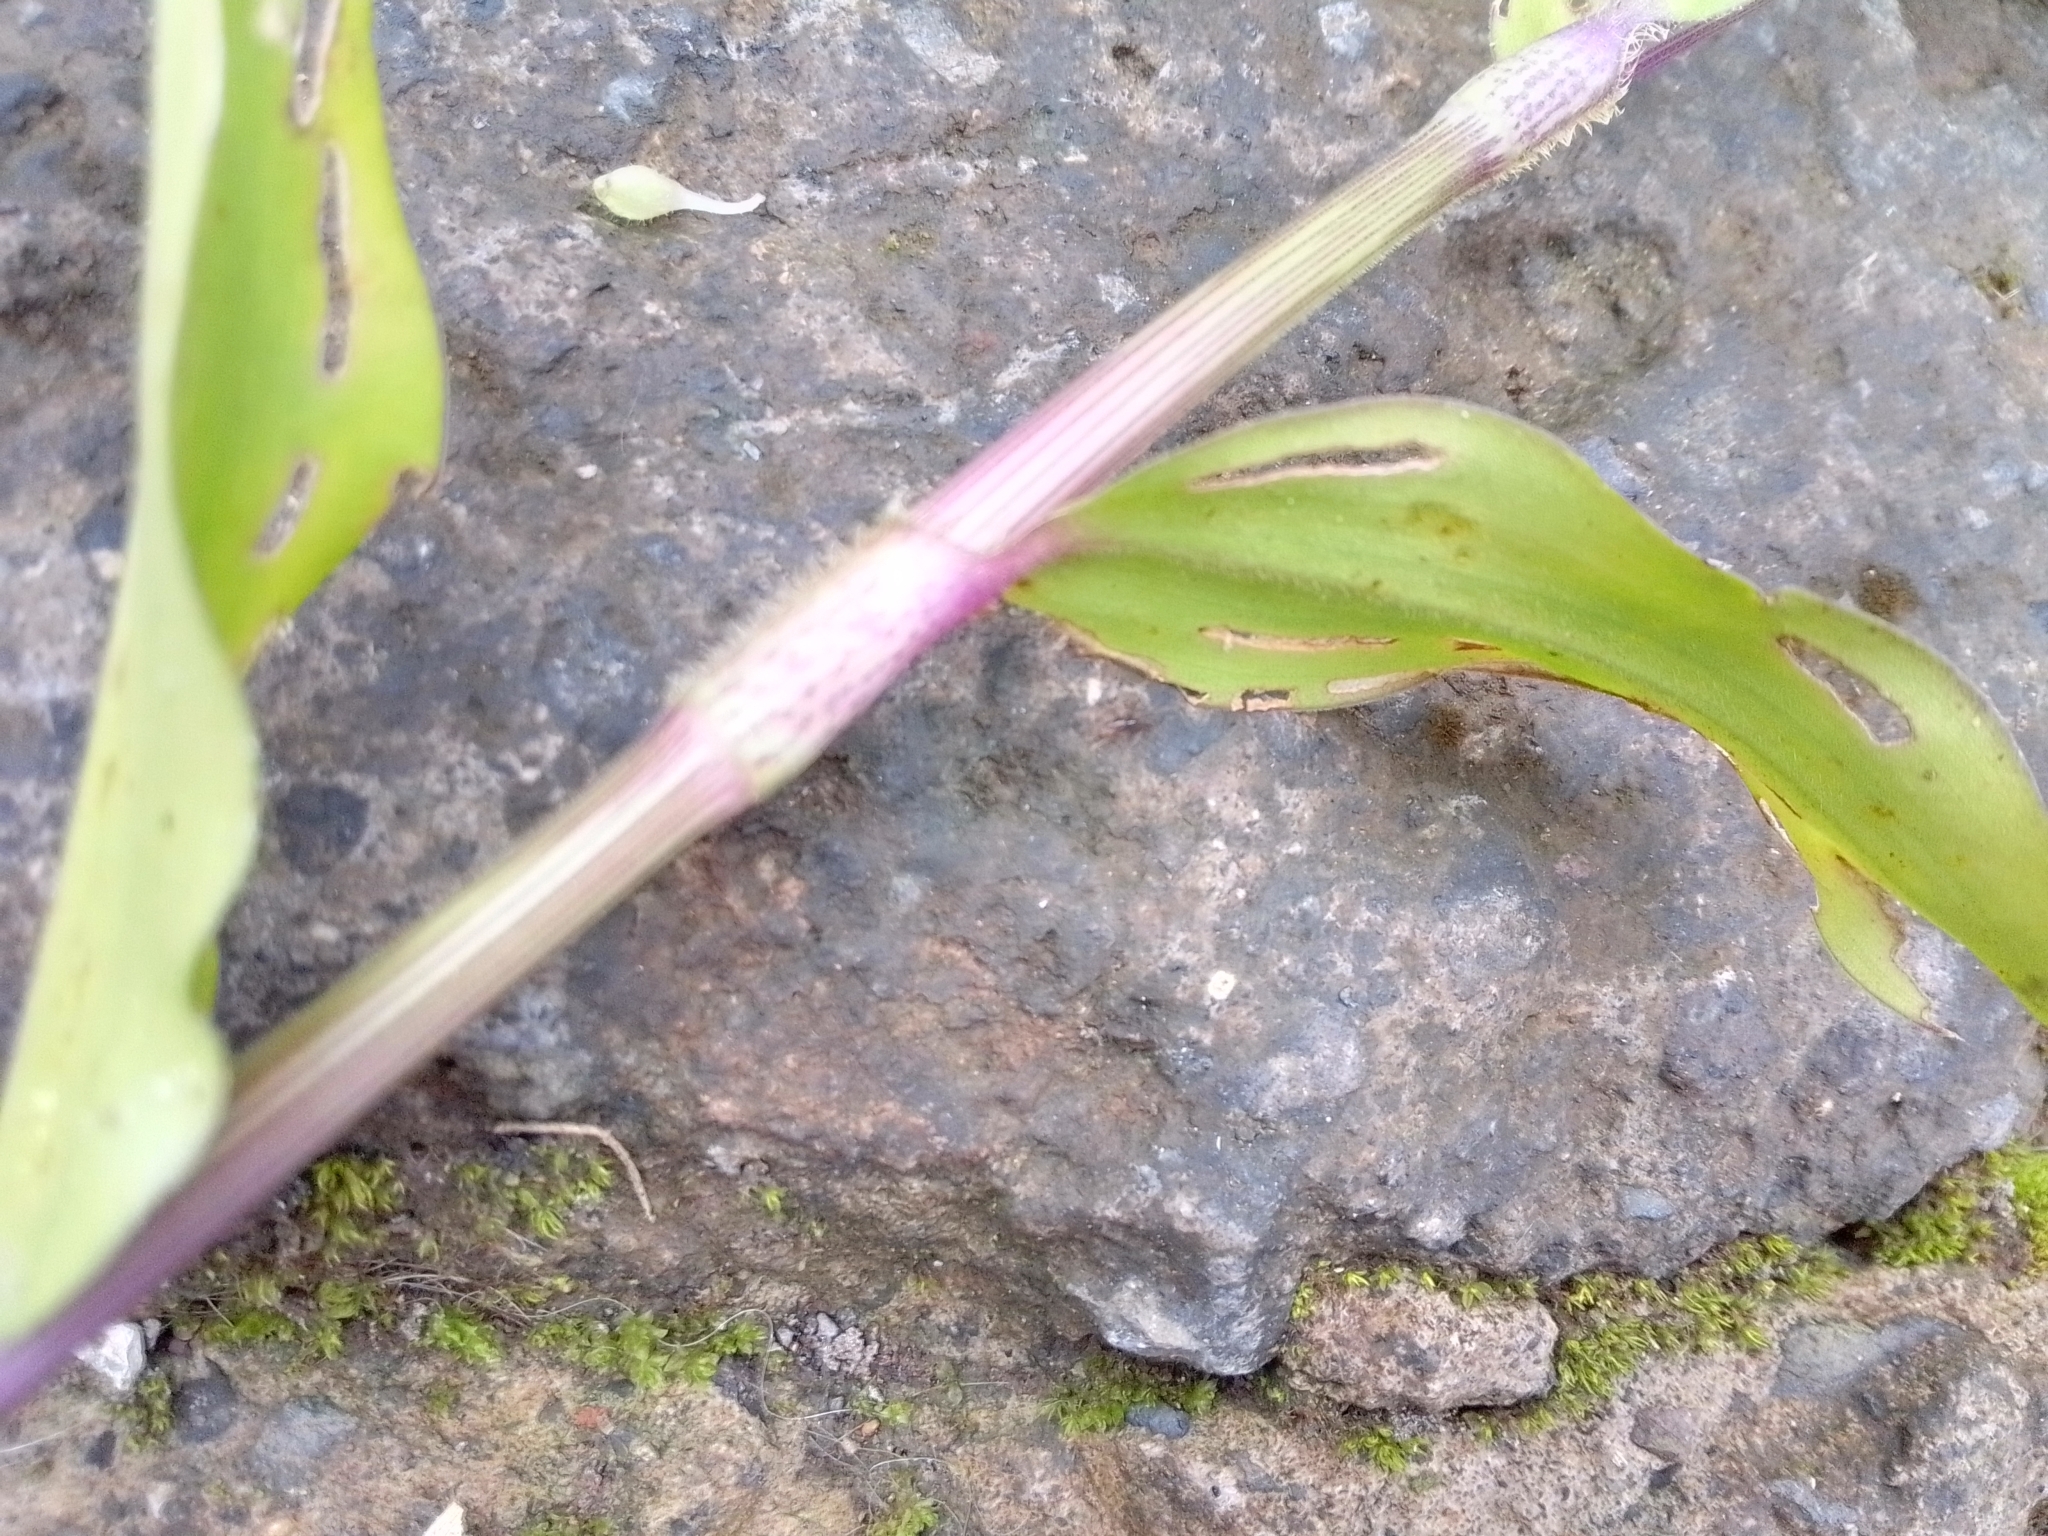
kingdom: Plantae
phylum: Tracheophyta
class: Liliopsida
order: Commelinales
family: Commelinaceae
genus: Callisia
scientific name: Callisia serrulata
